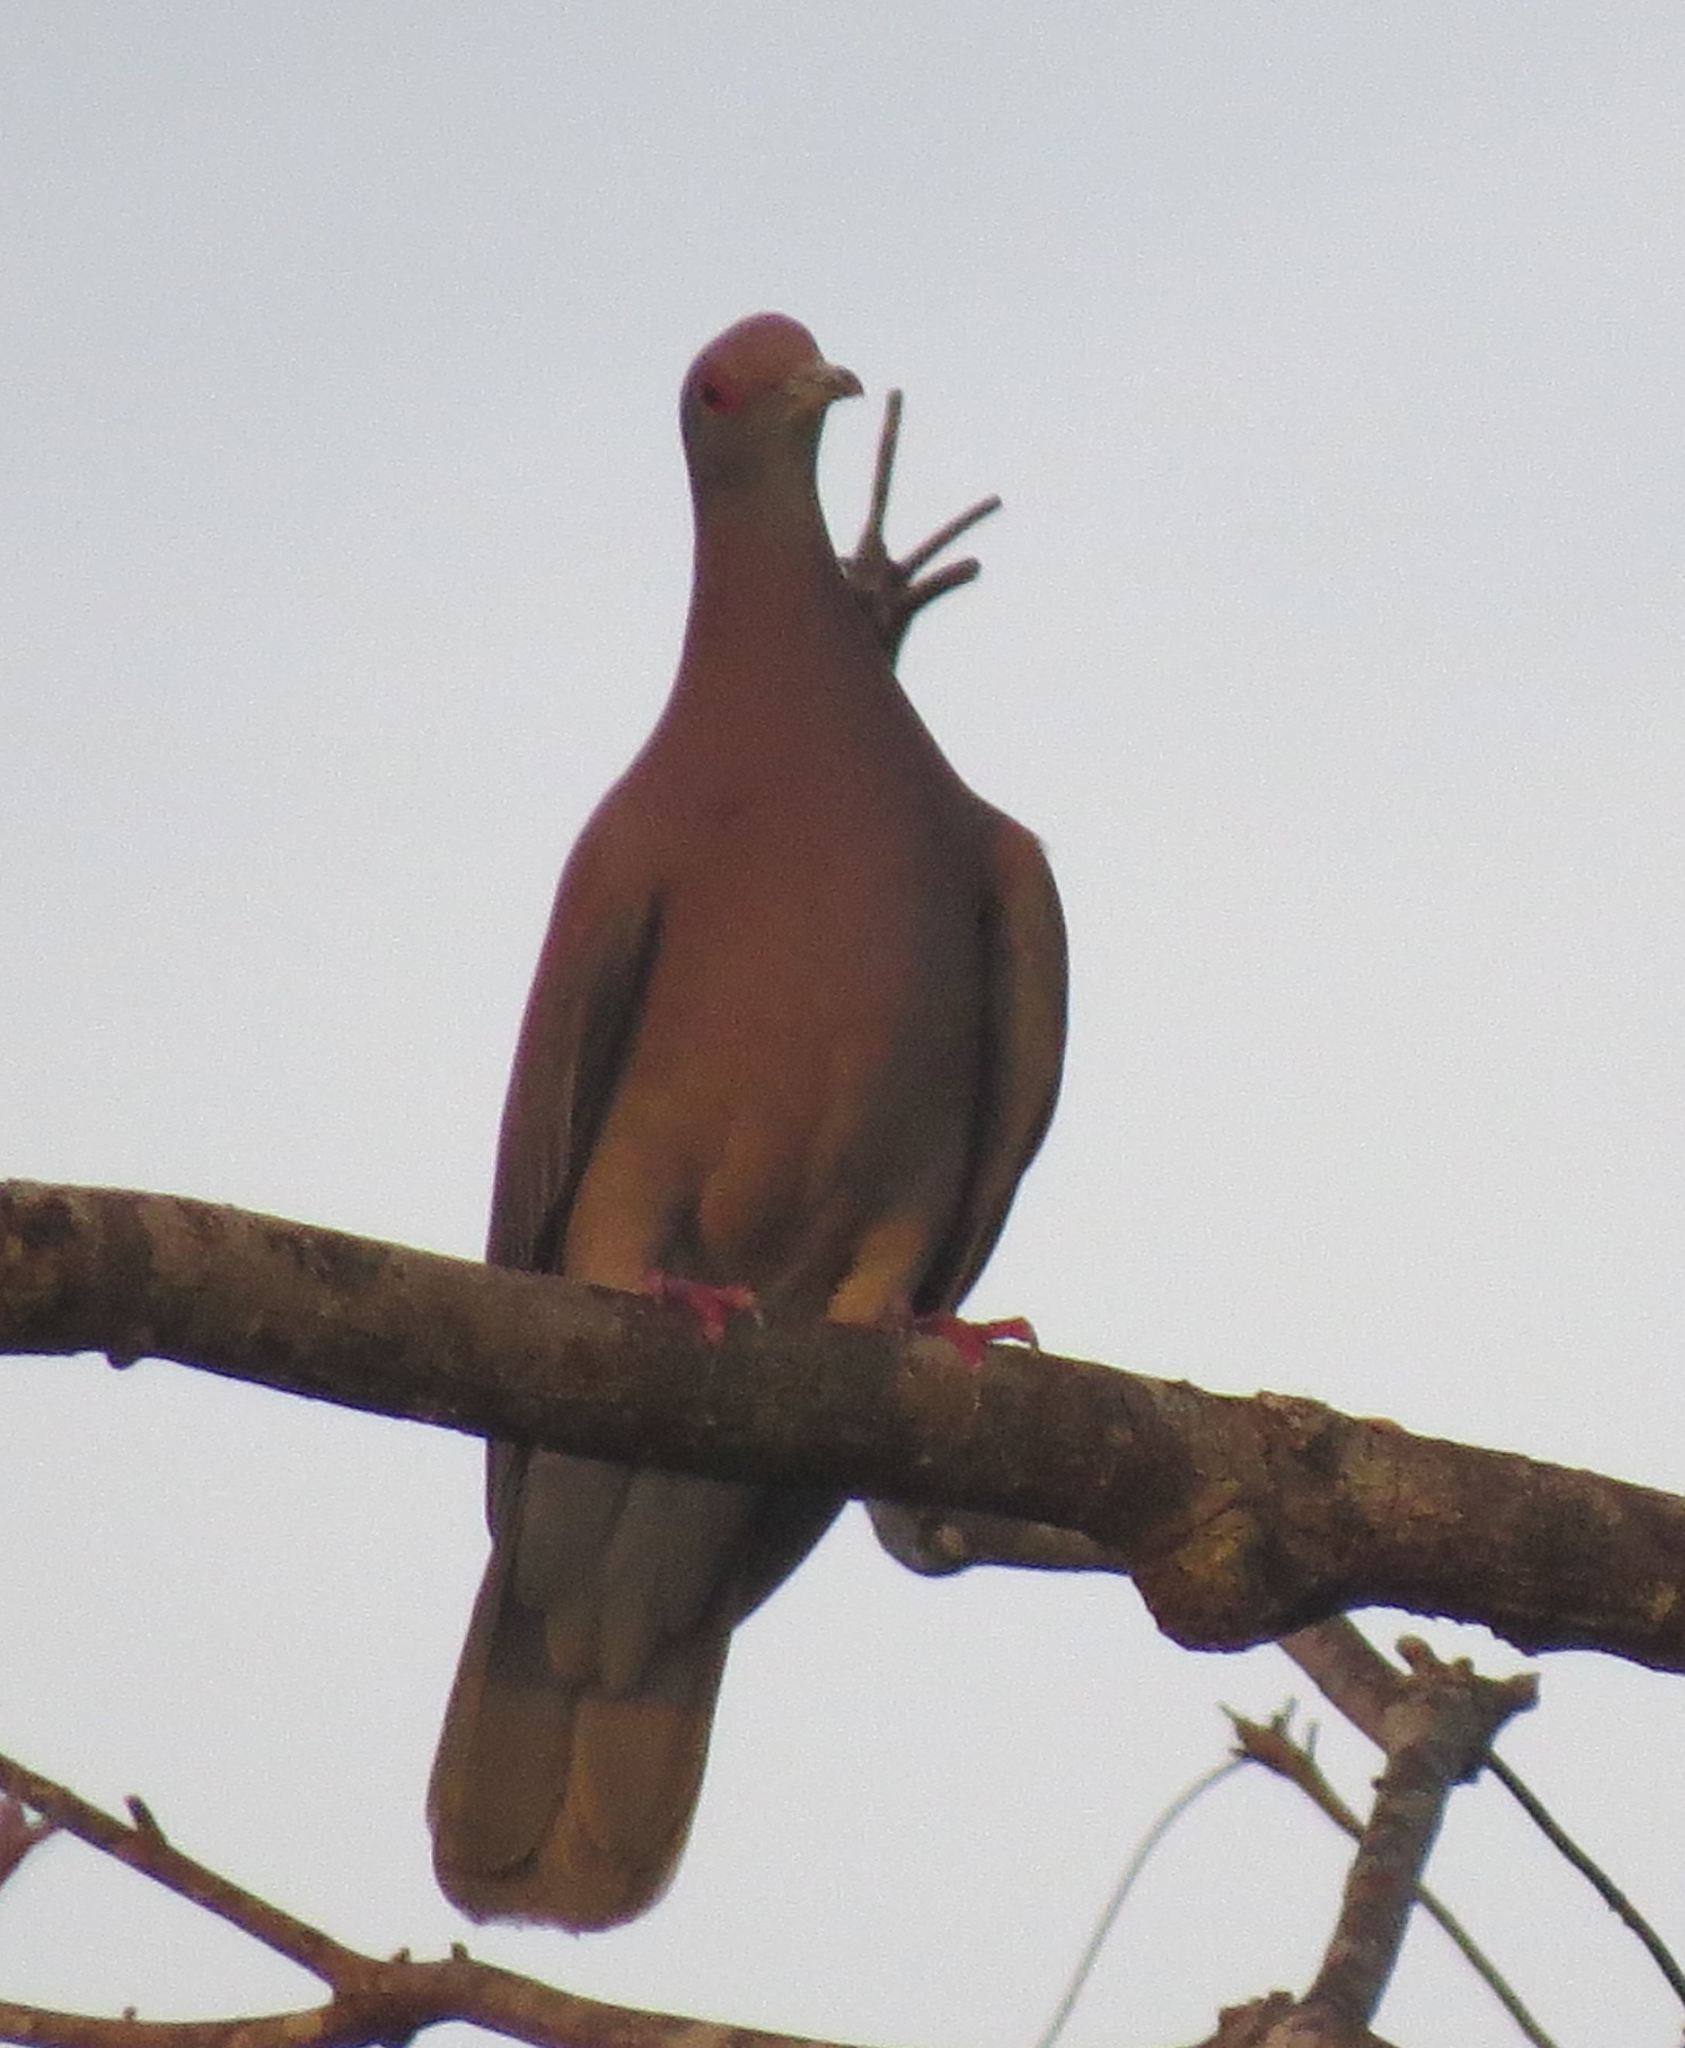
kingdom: Animalia
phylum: Chordata
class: Aves
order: Columbiformes
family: Columbidae
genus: Patagioenas
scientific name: Patagioenas cayennensis
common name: Pale-vented pigeon
